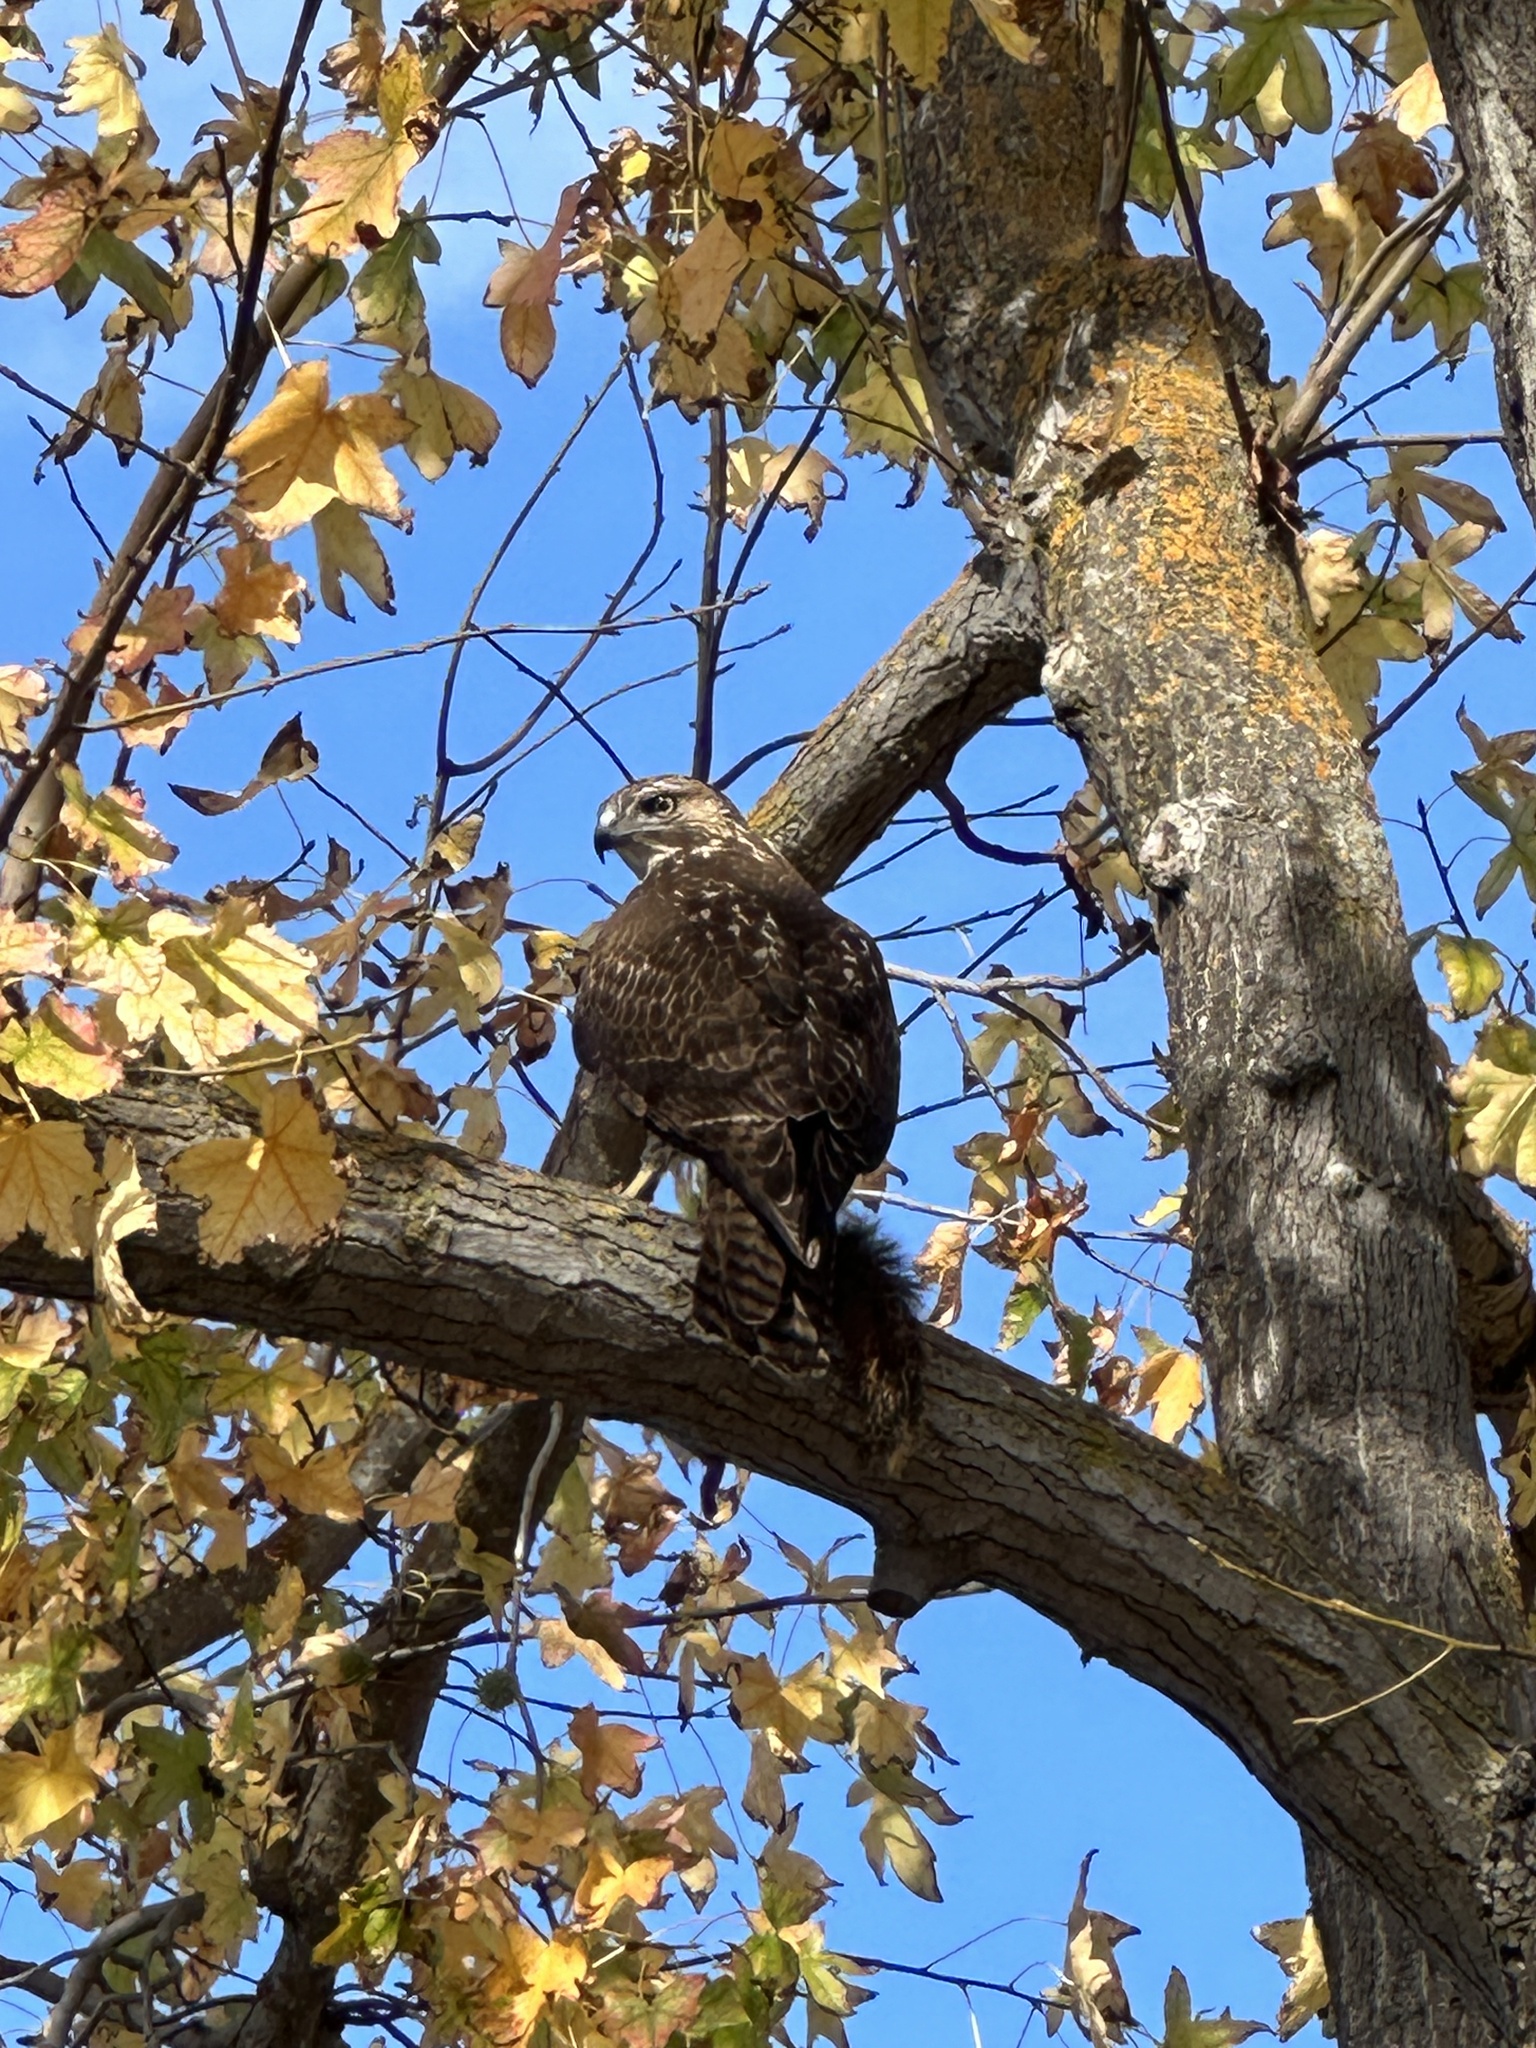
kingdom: Animalia
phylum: Chordata
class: Aves
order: Accipitriformes
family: Accipitridae
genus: Buteo
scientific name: Buteo jamaicensis
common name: Red-tailed hawk
